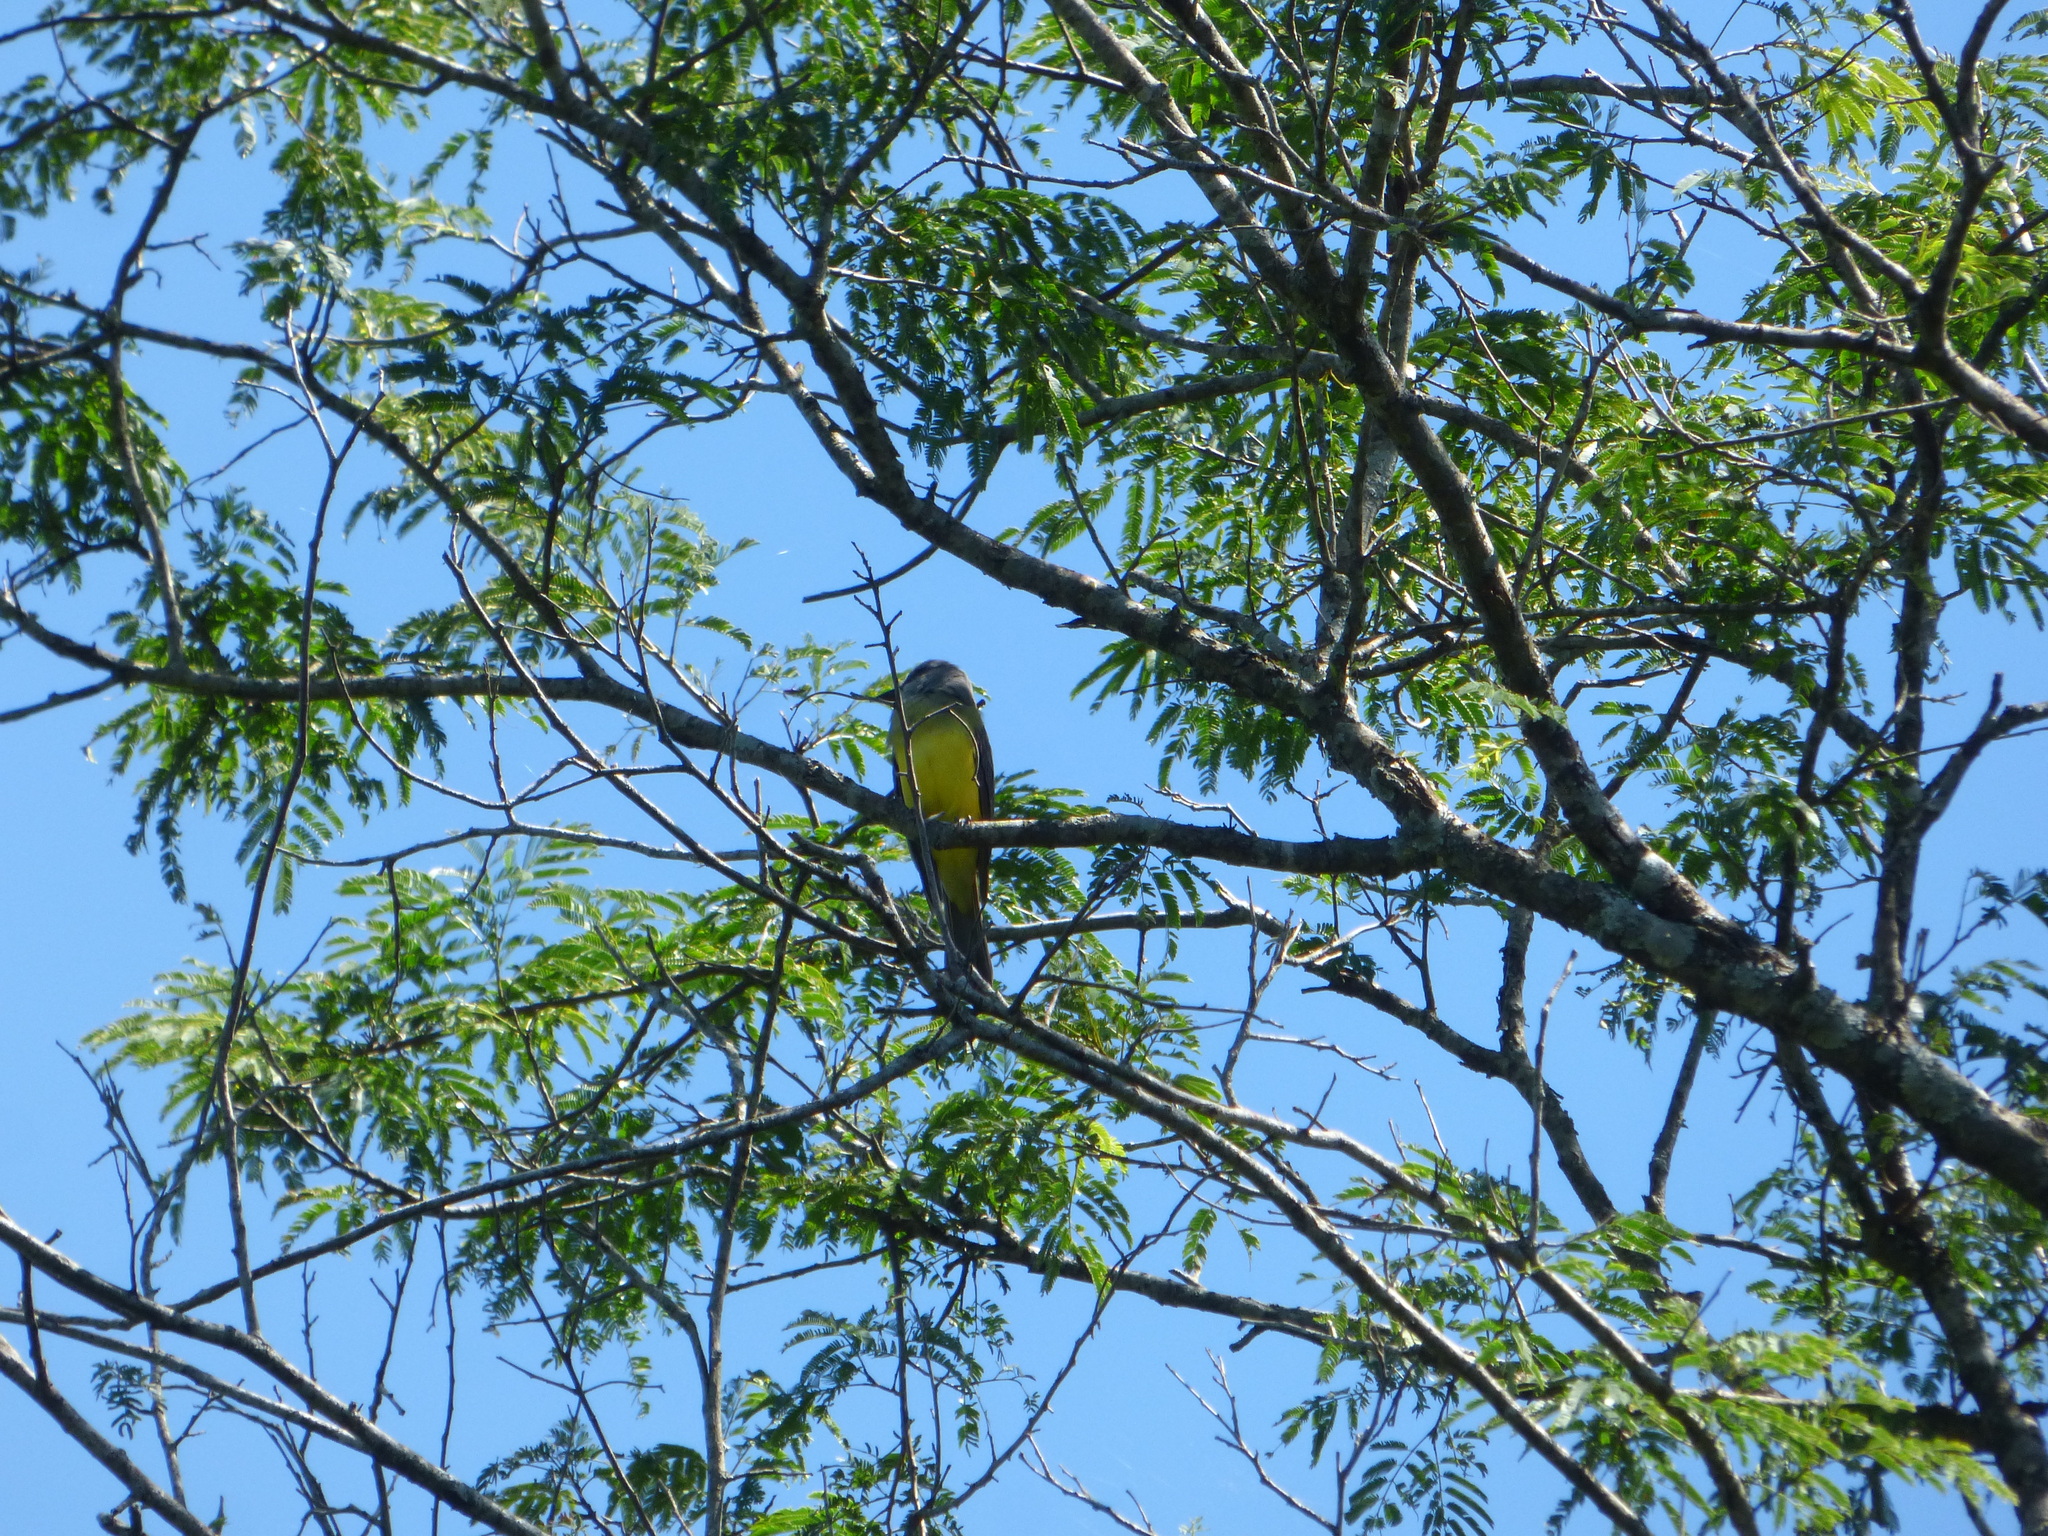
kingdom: Animalia
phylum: Chordata
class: Aves
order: Passeriformes
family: Tyrannidae
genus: Tyrannus
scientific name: Tyrannus melancholicus
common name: Tropical kingbird
